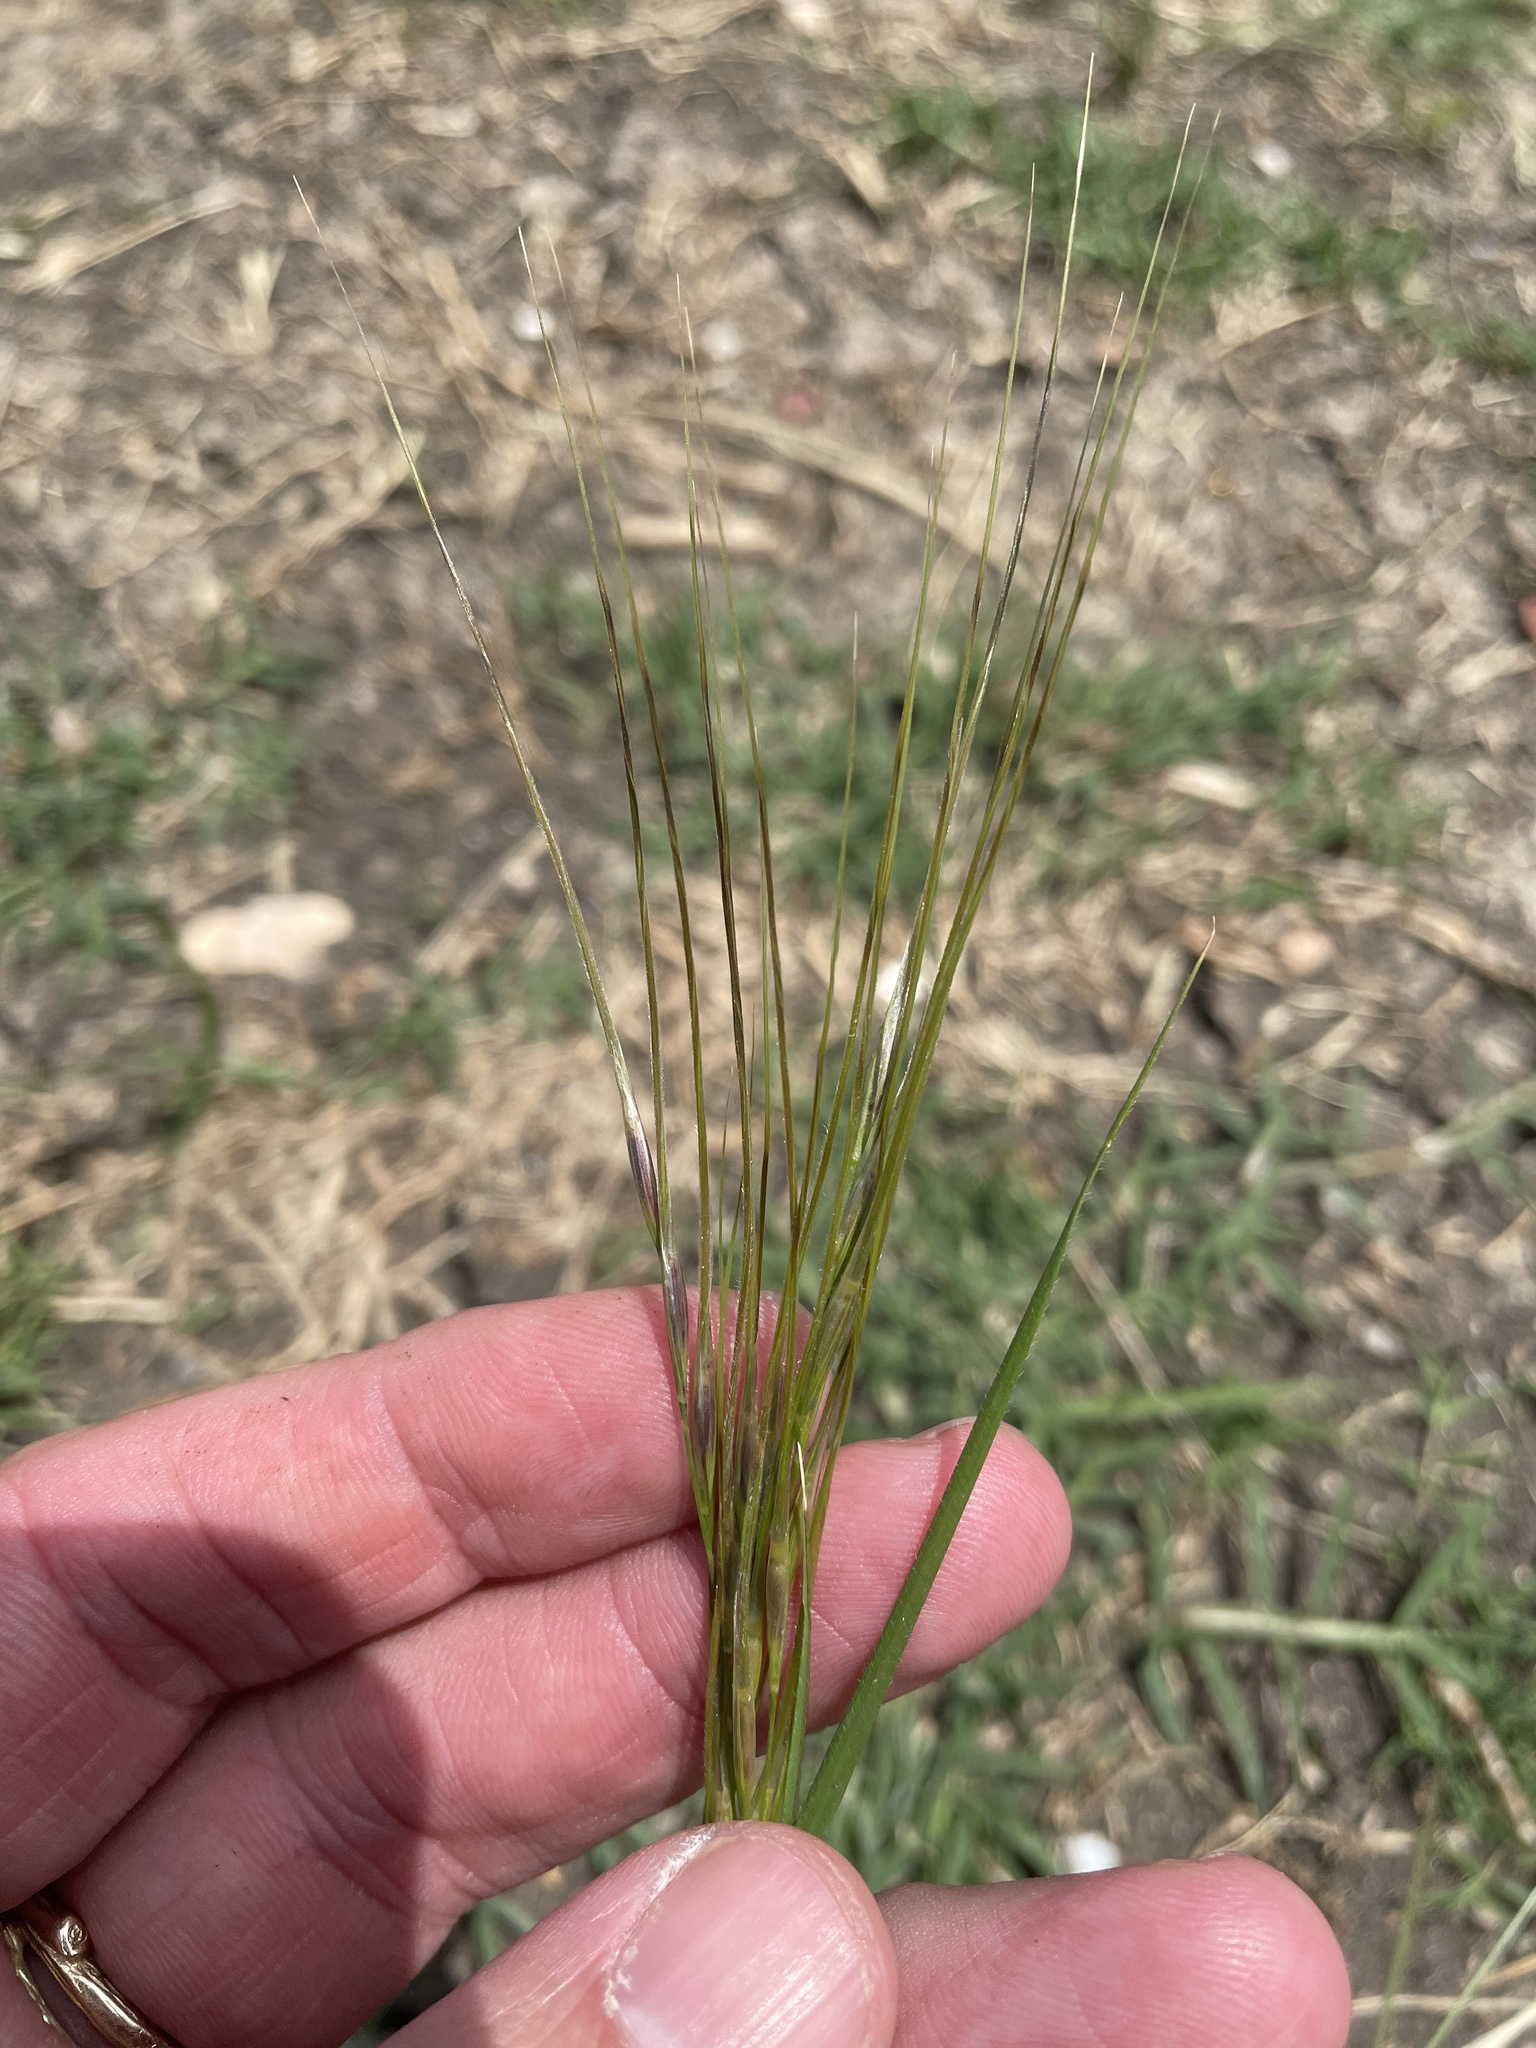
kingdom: Plantae
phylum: Tracheophyta
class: Liliopsida
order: Poales
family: Poaceae
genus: Nassella
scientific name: Nassella leucotricha
